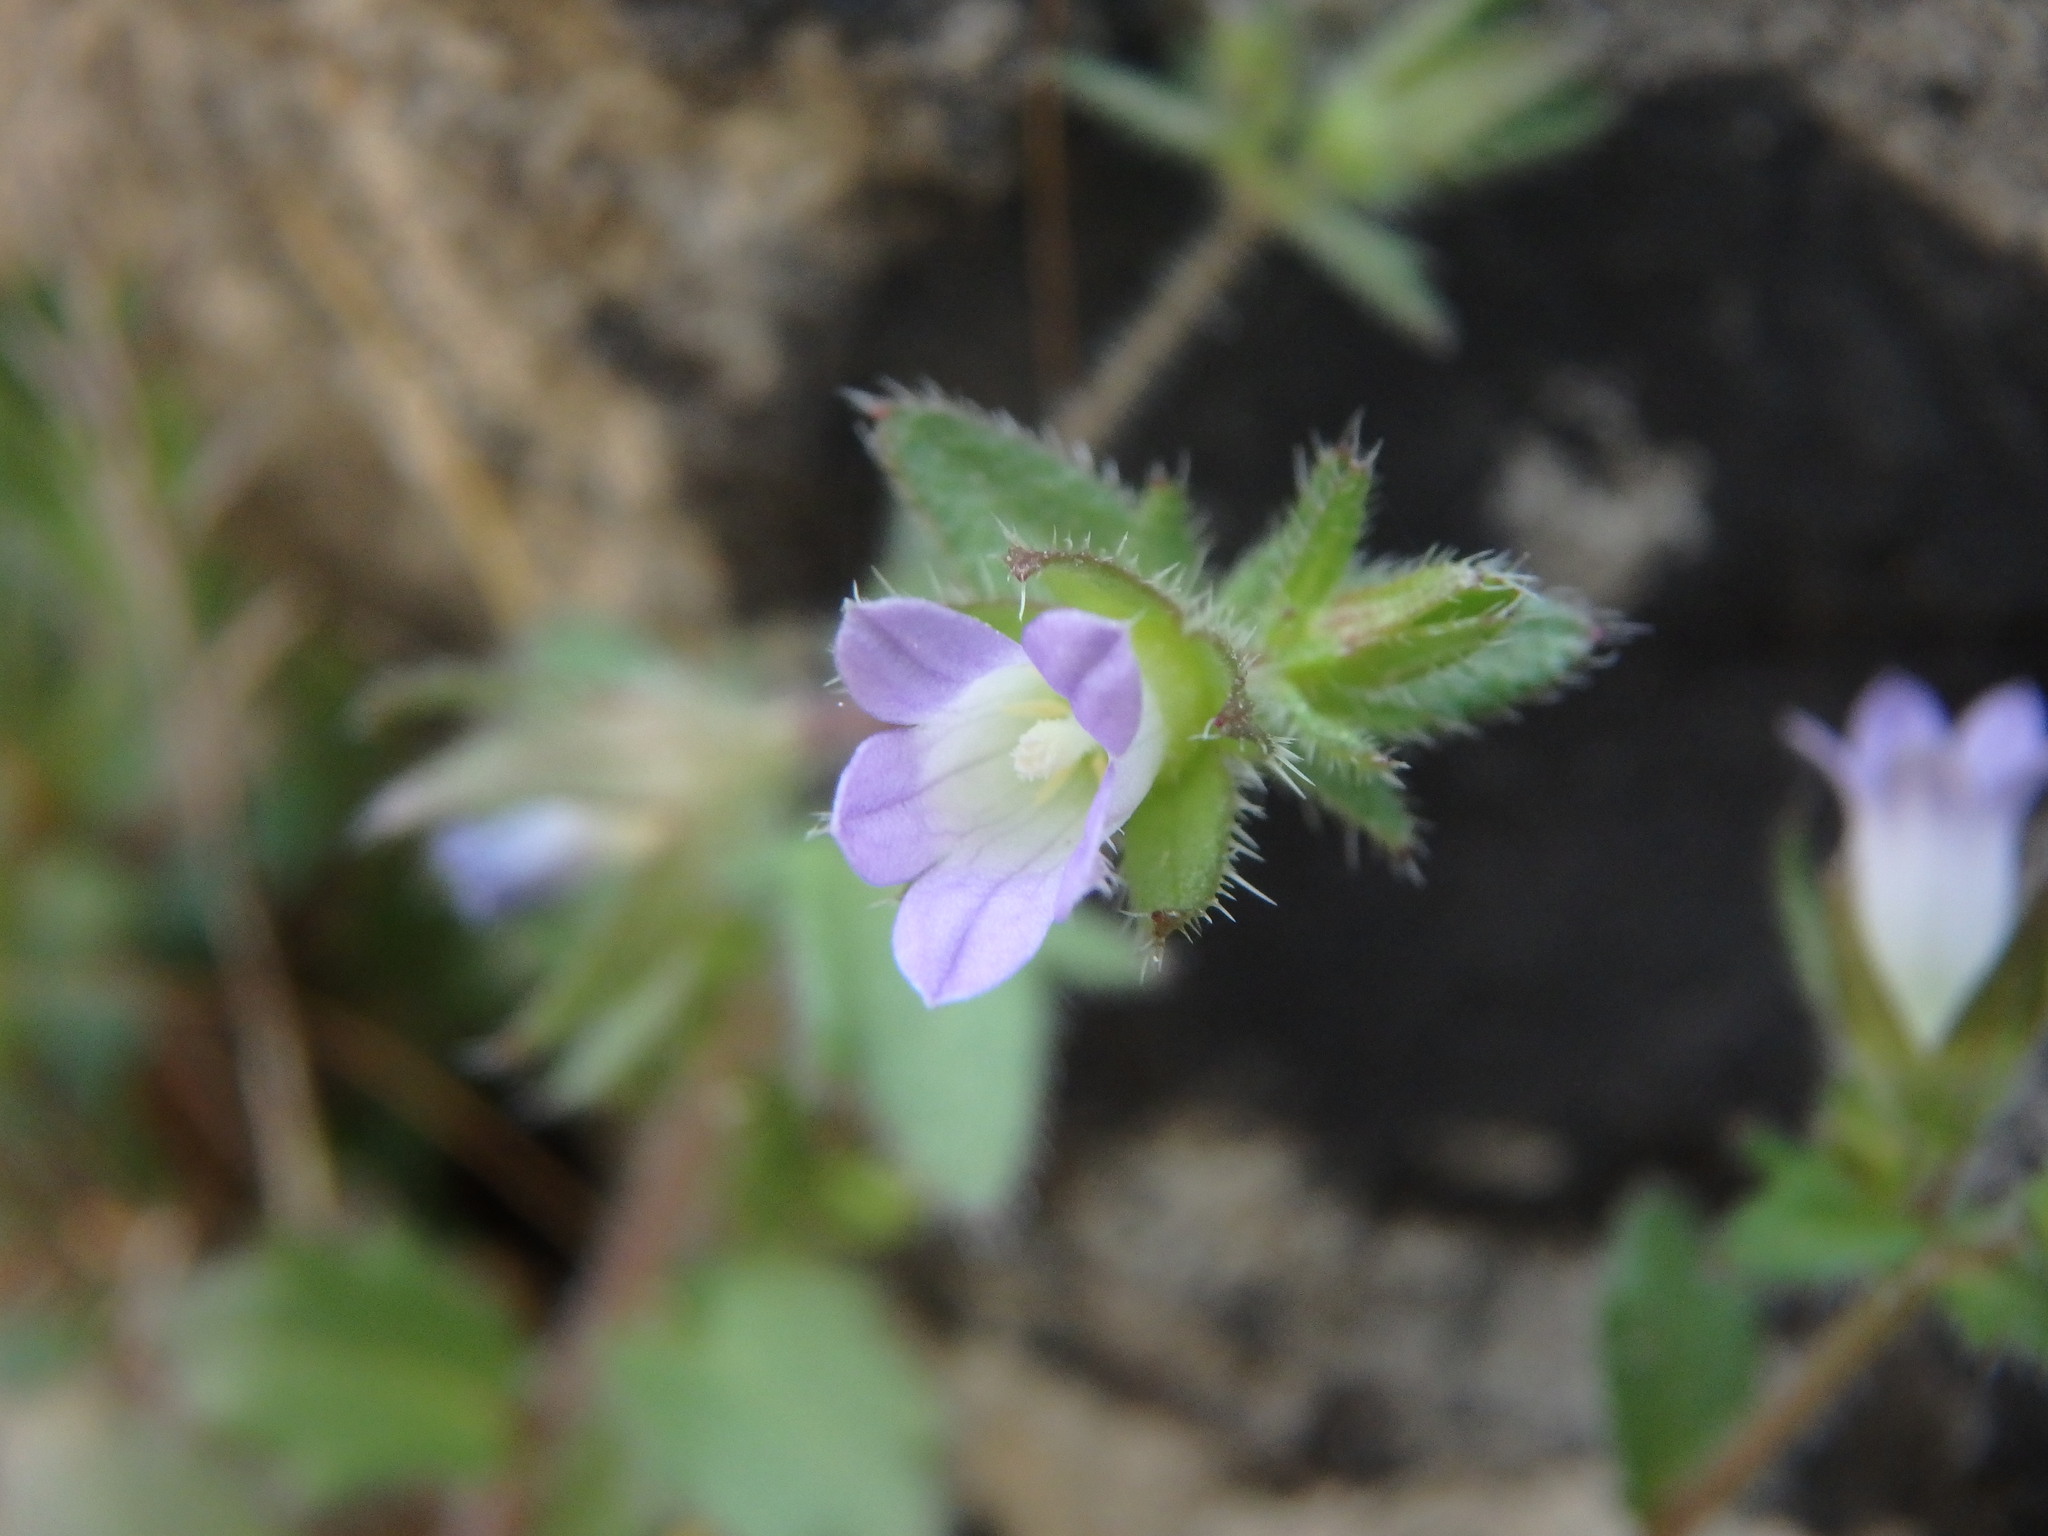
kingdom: Plantae
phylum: Tracheophyta
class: Magnoliopsida
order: Asterales
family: Campanulaceae
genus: Campanula
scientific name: Campanula erinus
